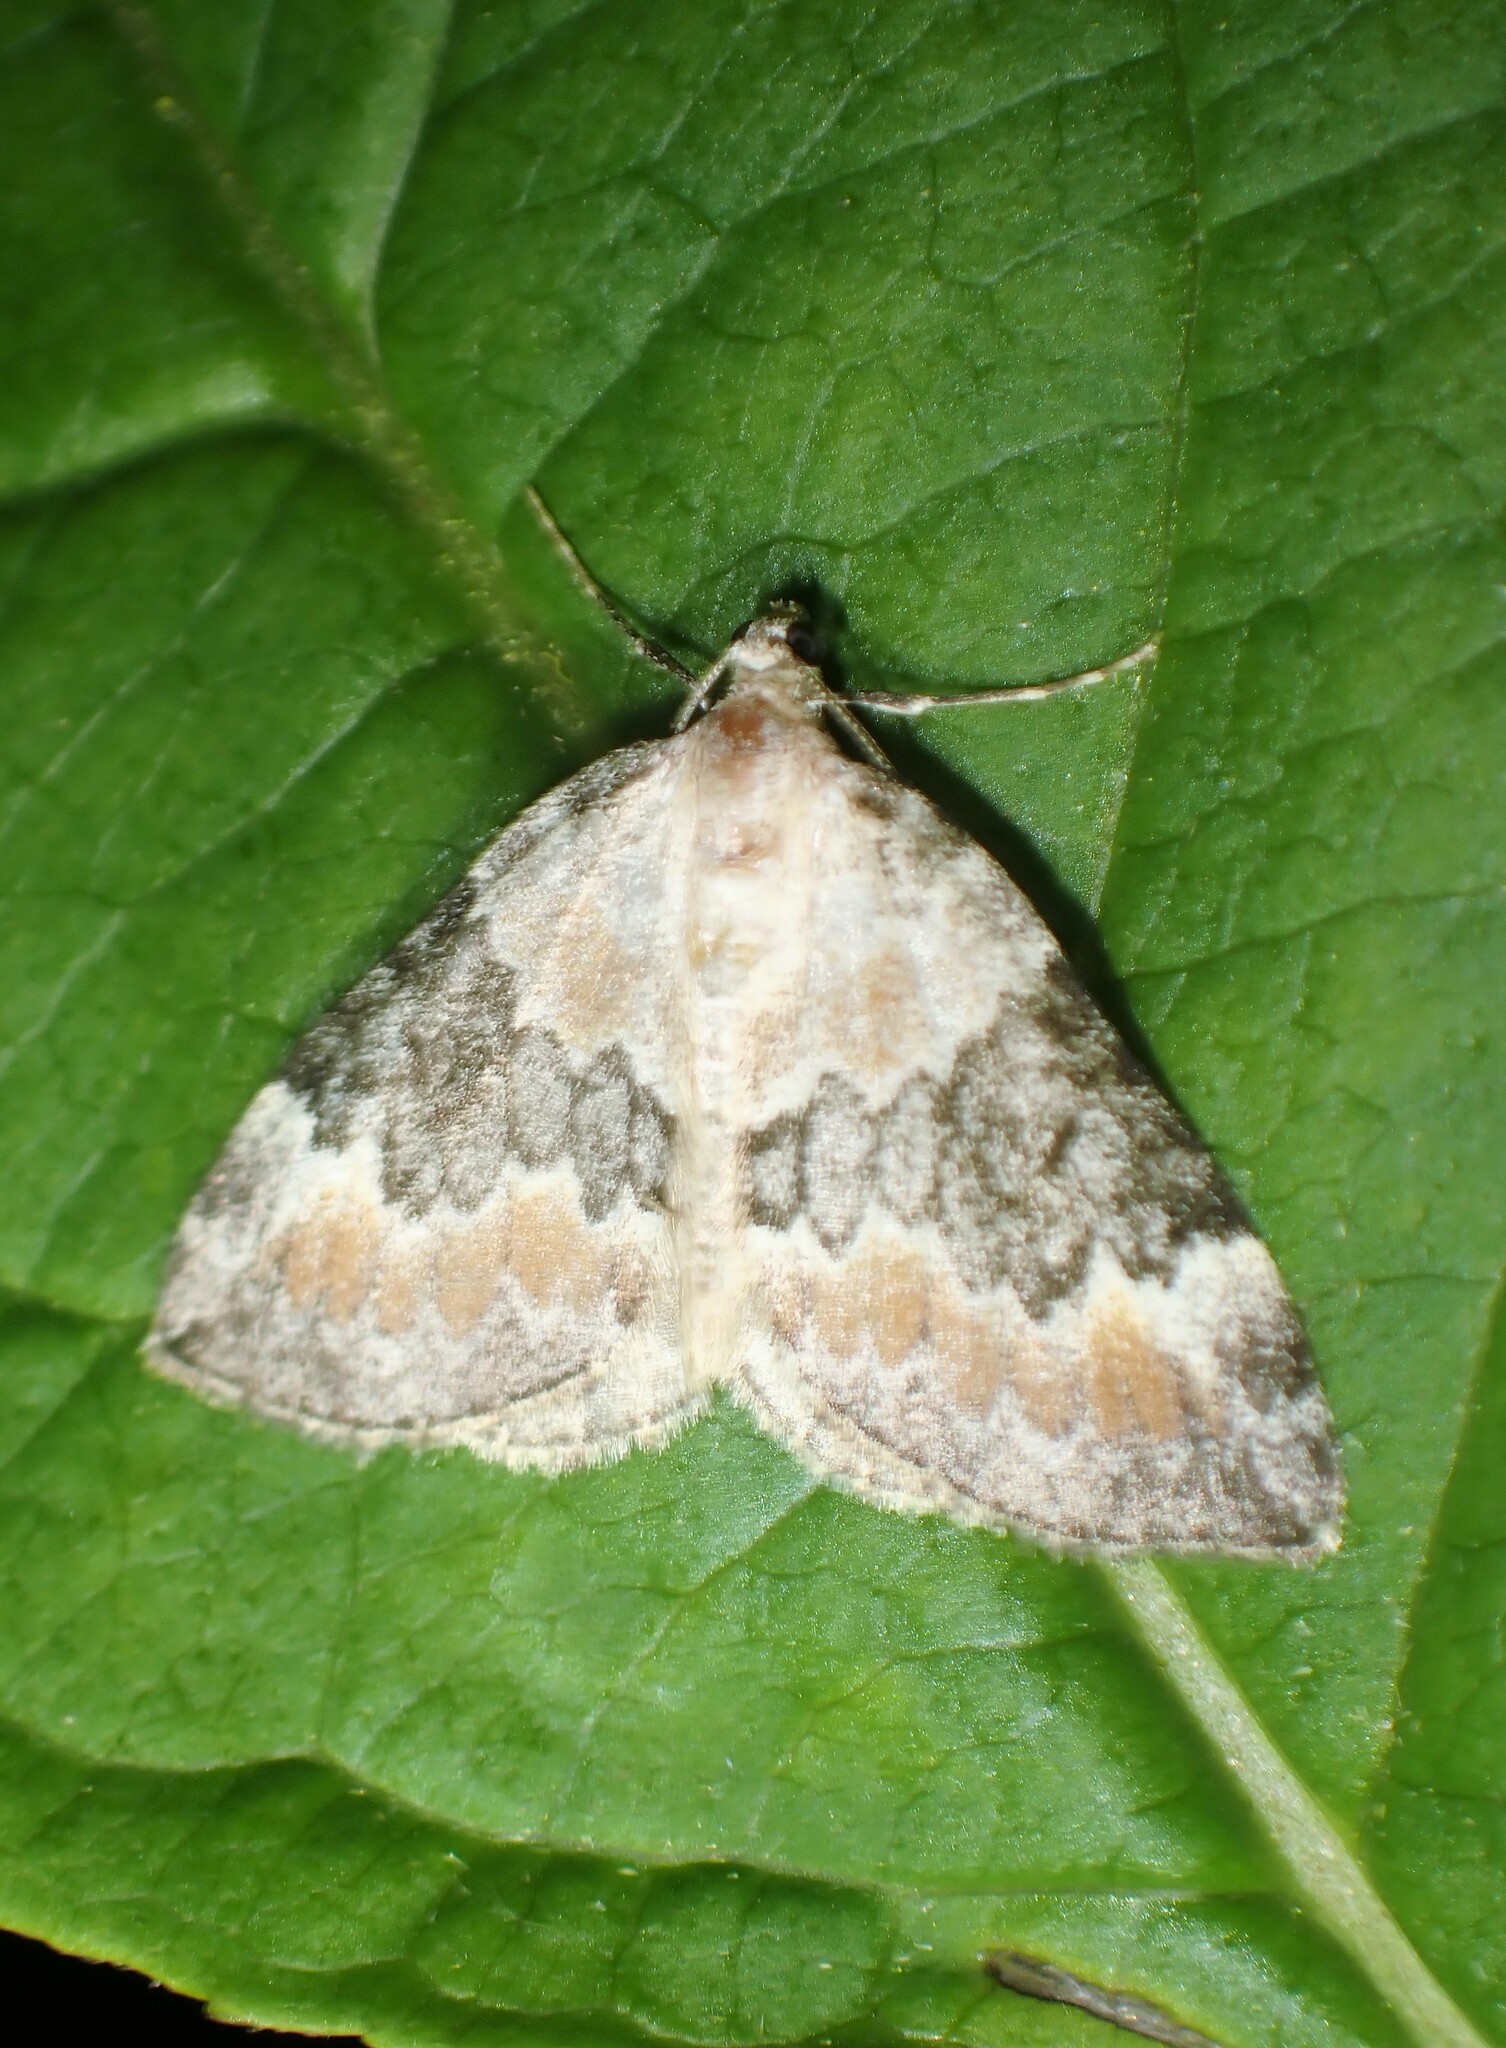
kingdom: Animalia
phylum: Arthropoda
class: Insecta
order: Lepidoptera
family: Geometridae
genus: Dysstroma
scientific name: Dysstroma brunneata
